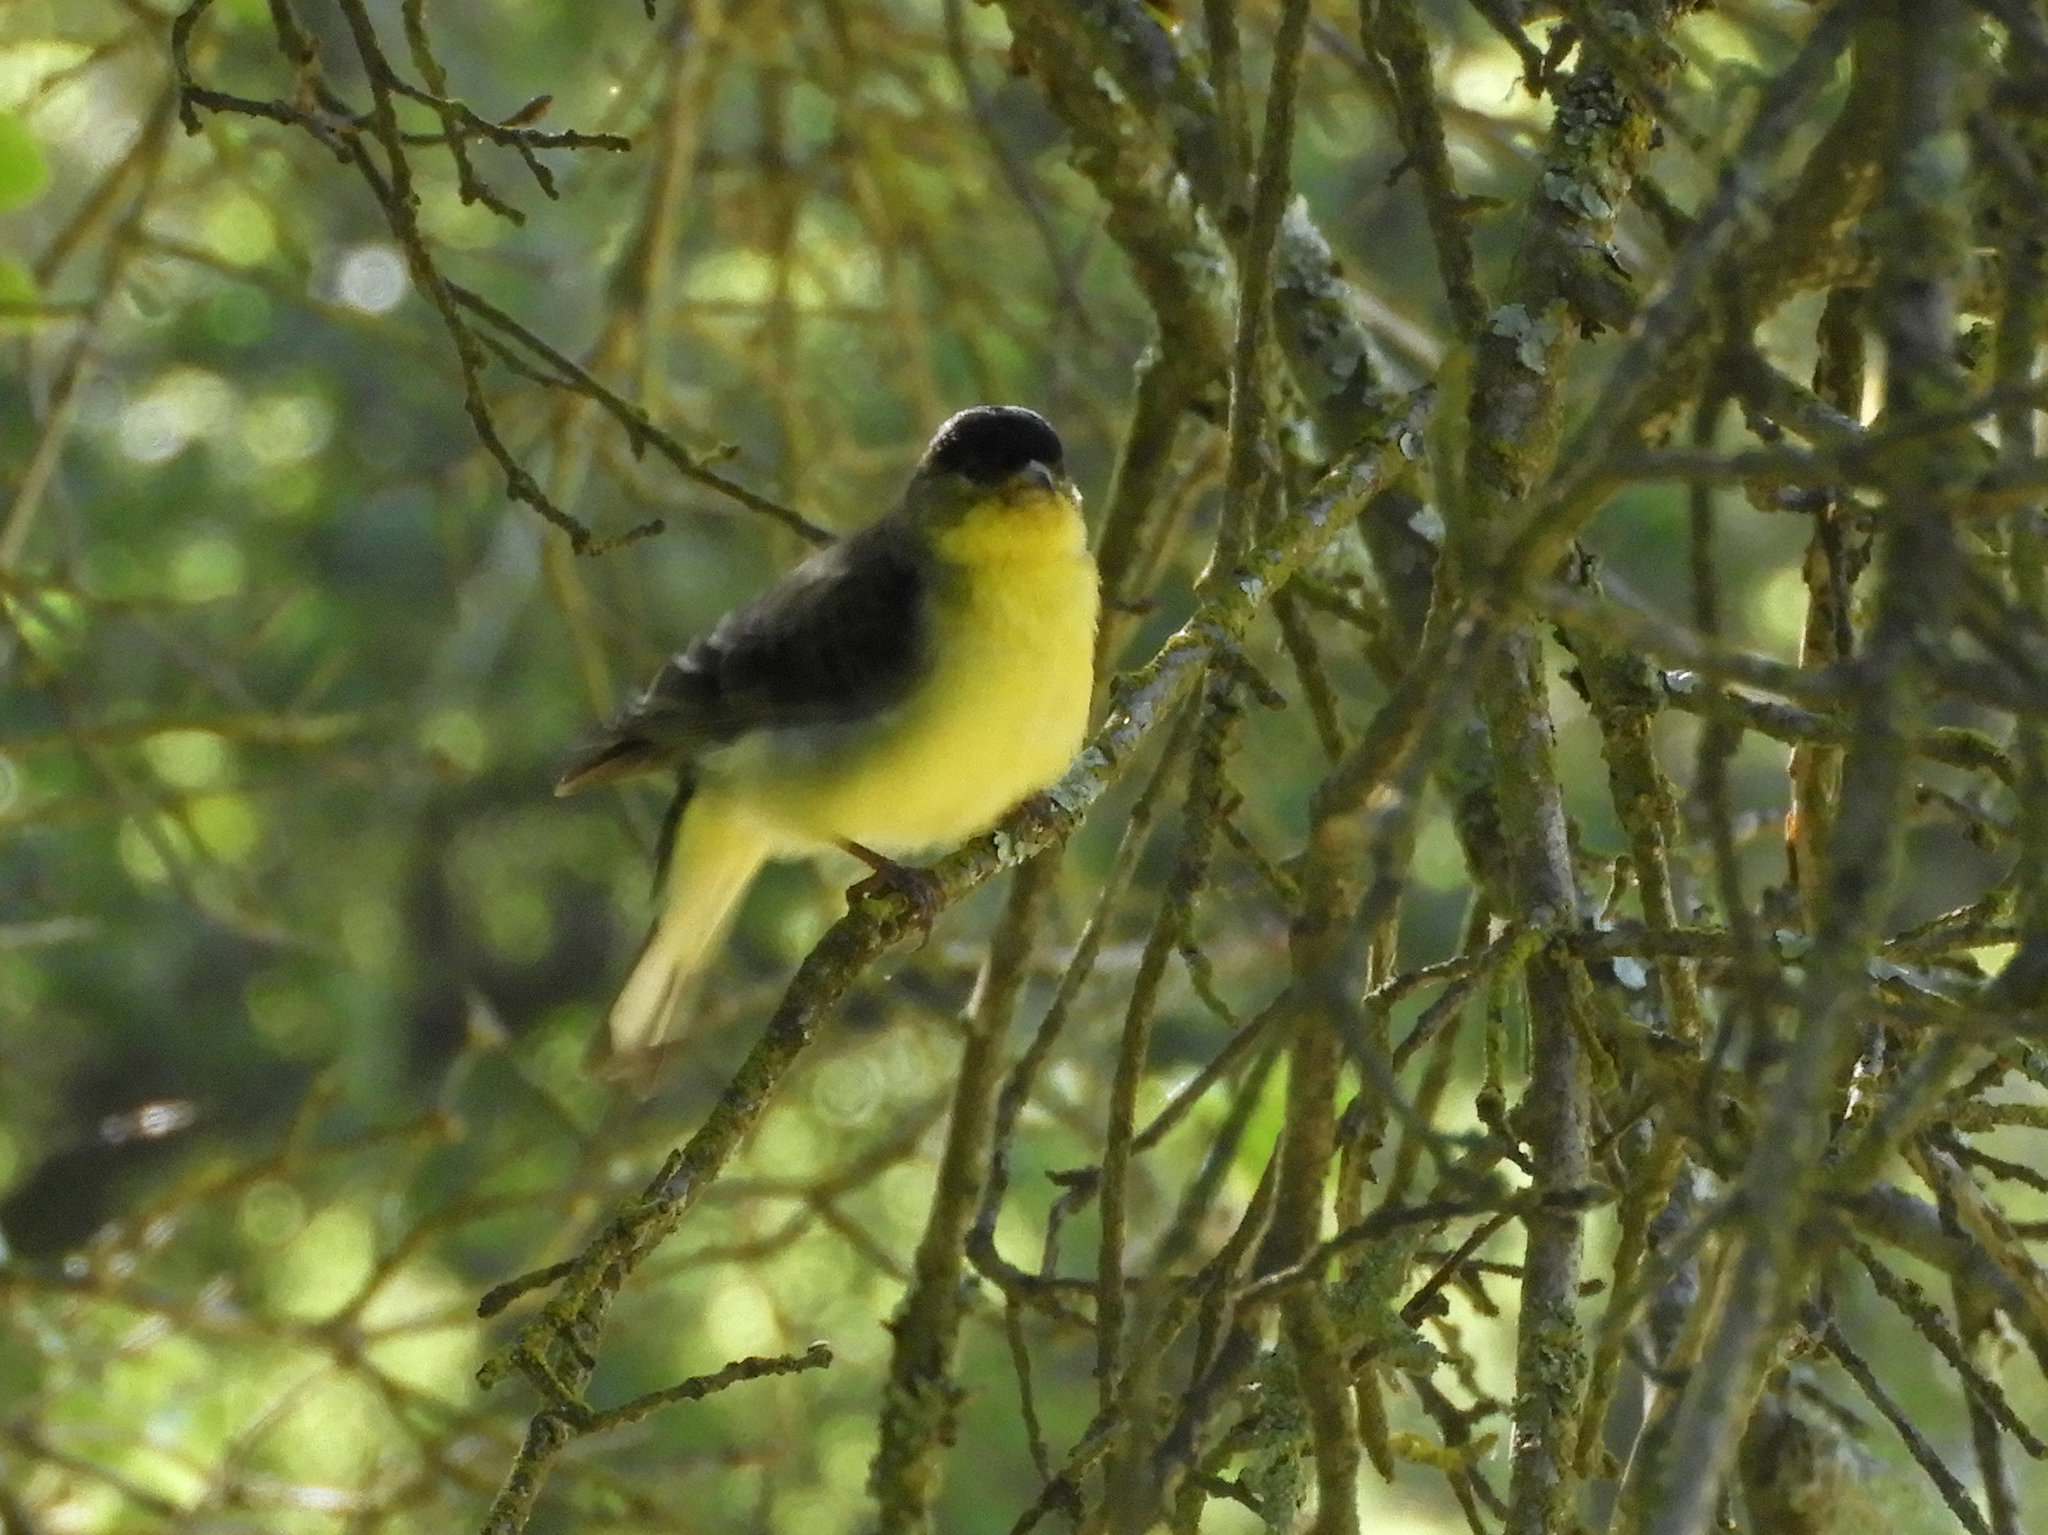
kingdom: Animalia
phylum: Chordata
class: Aves
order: Passeriformes
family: Fringillidae
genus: Spinus
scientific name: Spinus psaltria
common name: Lesser goldfinch
